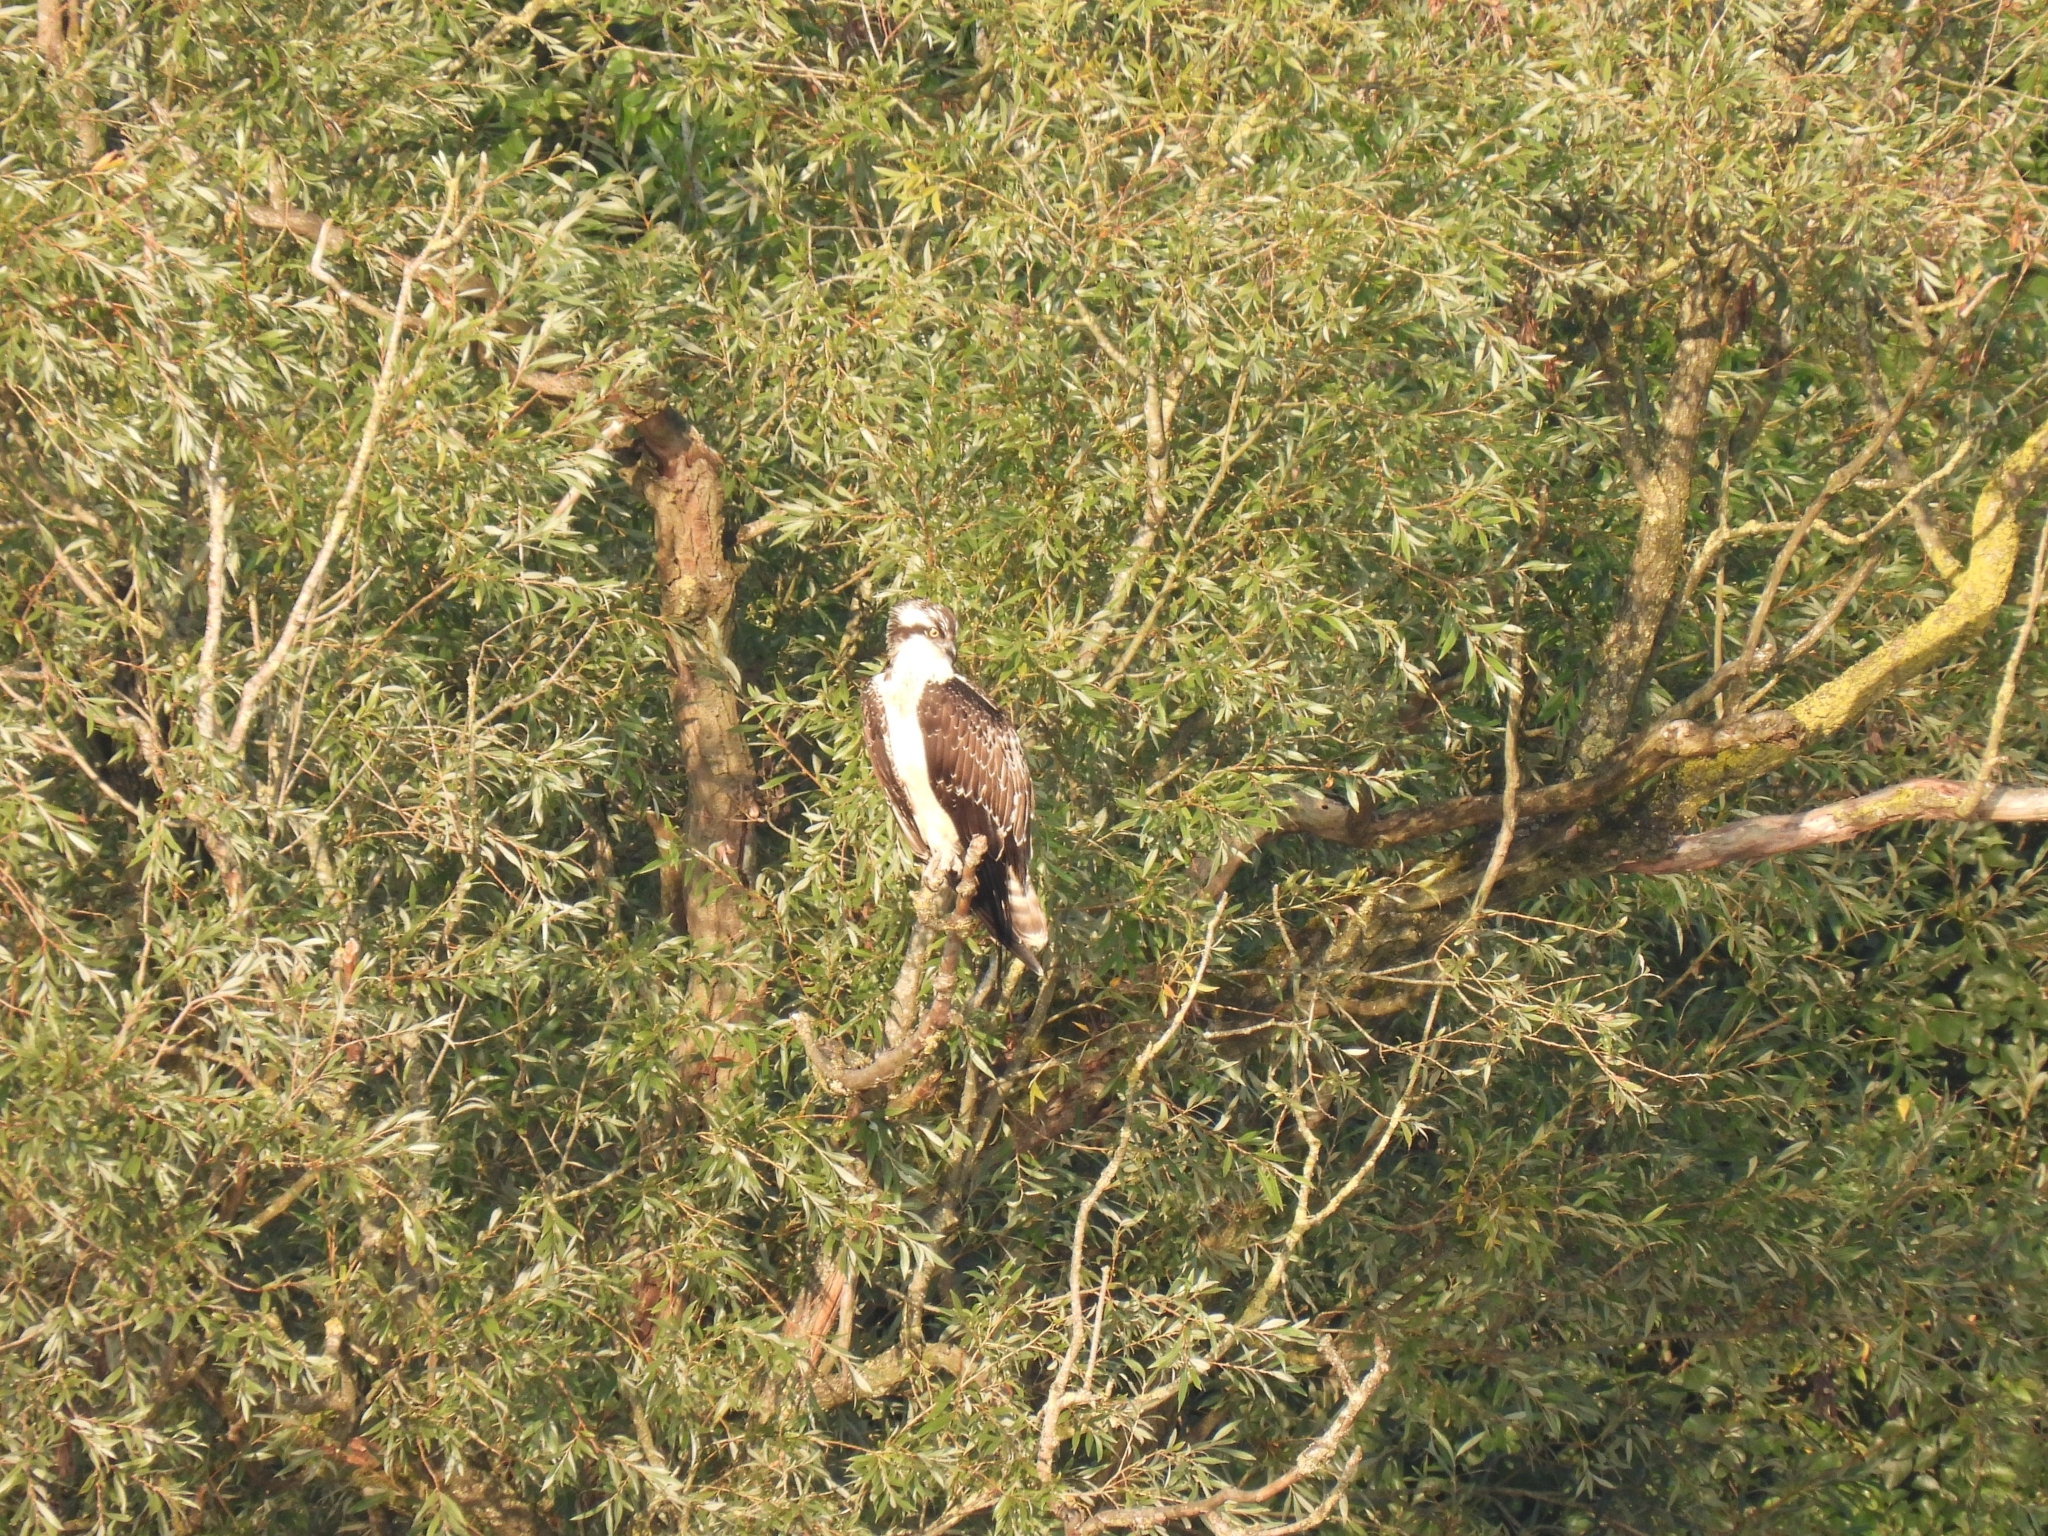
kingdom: Animalia
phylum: Chordata
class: Aves
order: Accipitriformes
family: Pandionidae
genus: Pandion
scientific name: Pandion haliaetus
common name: Osprey
